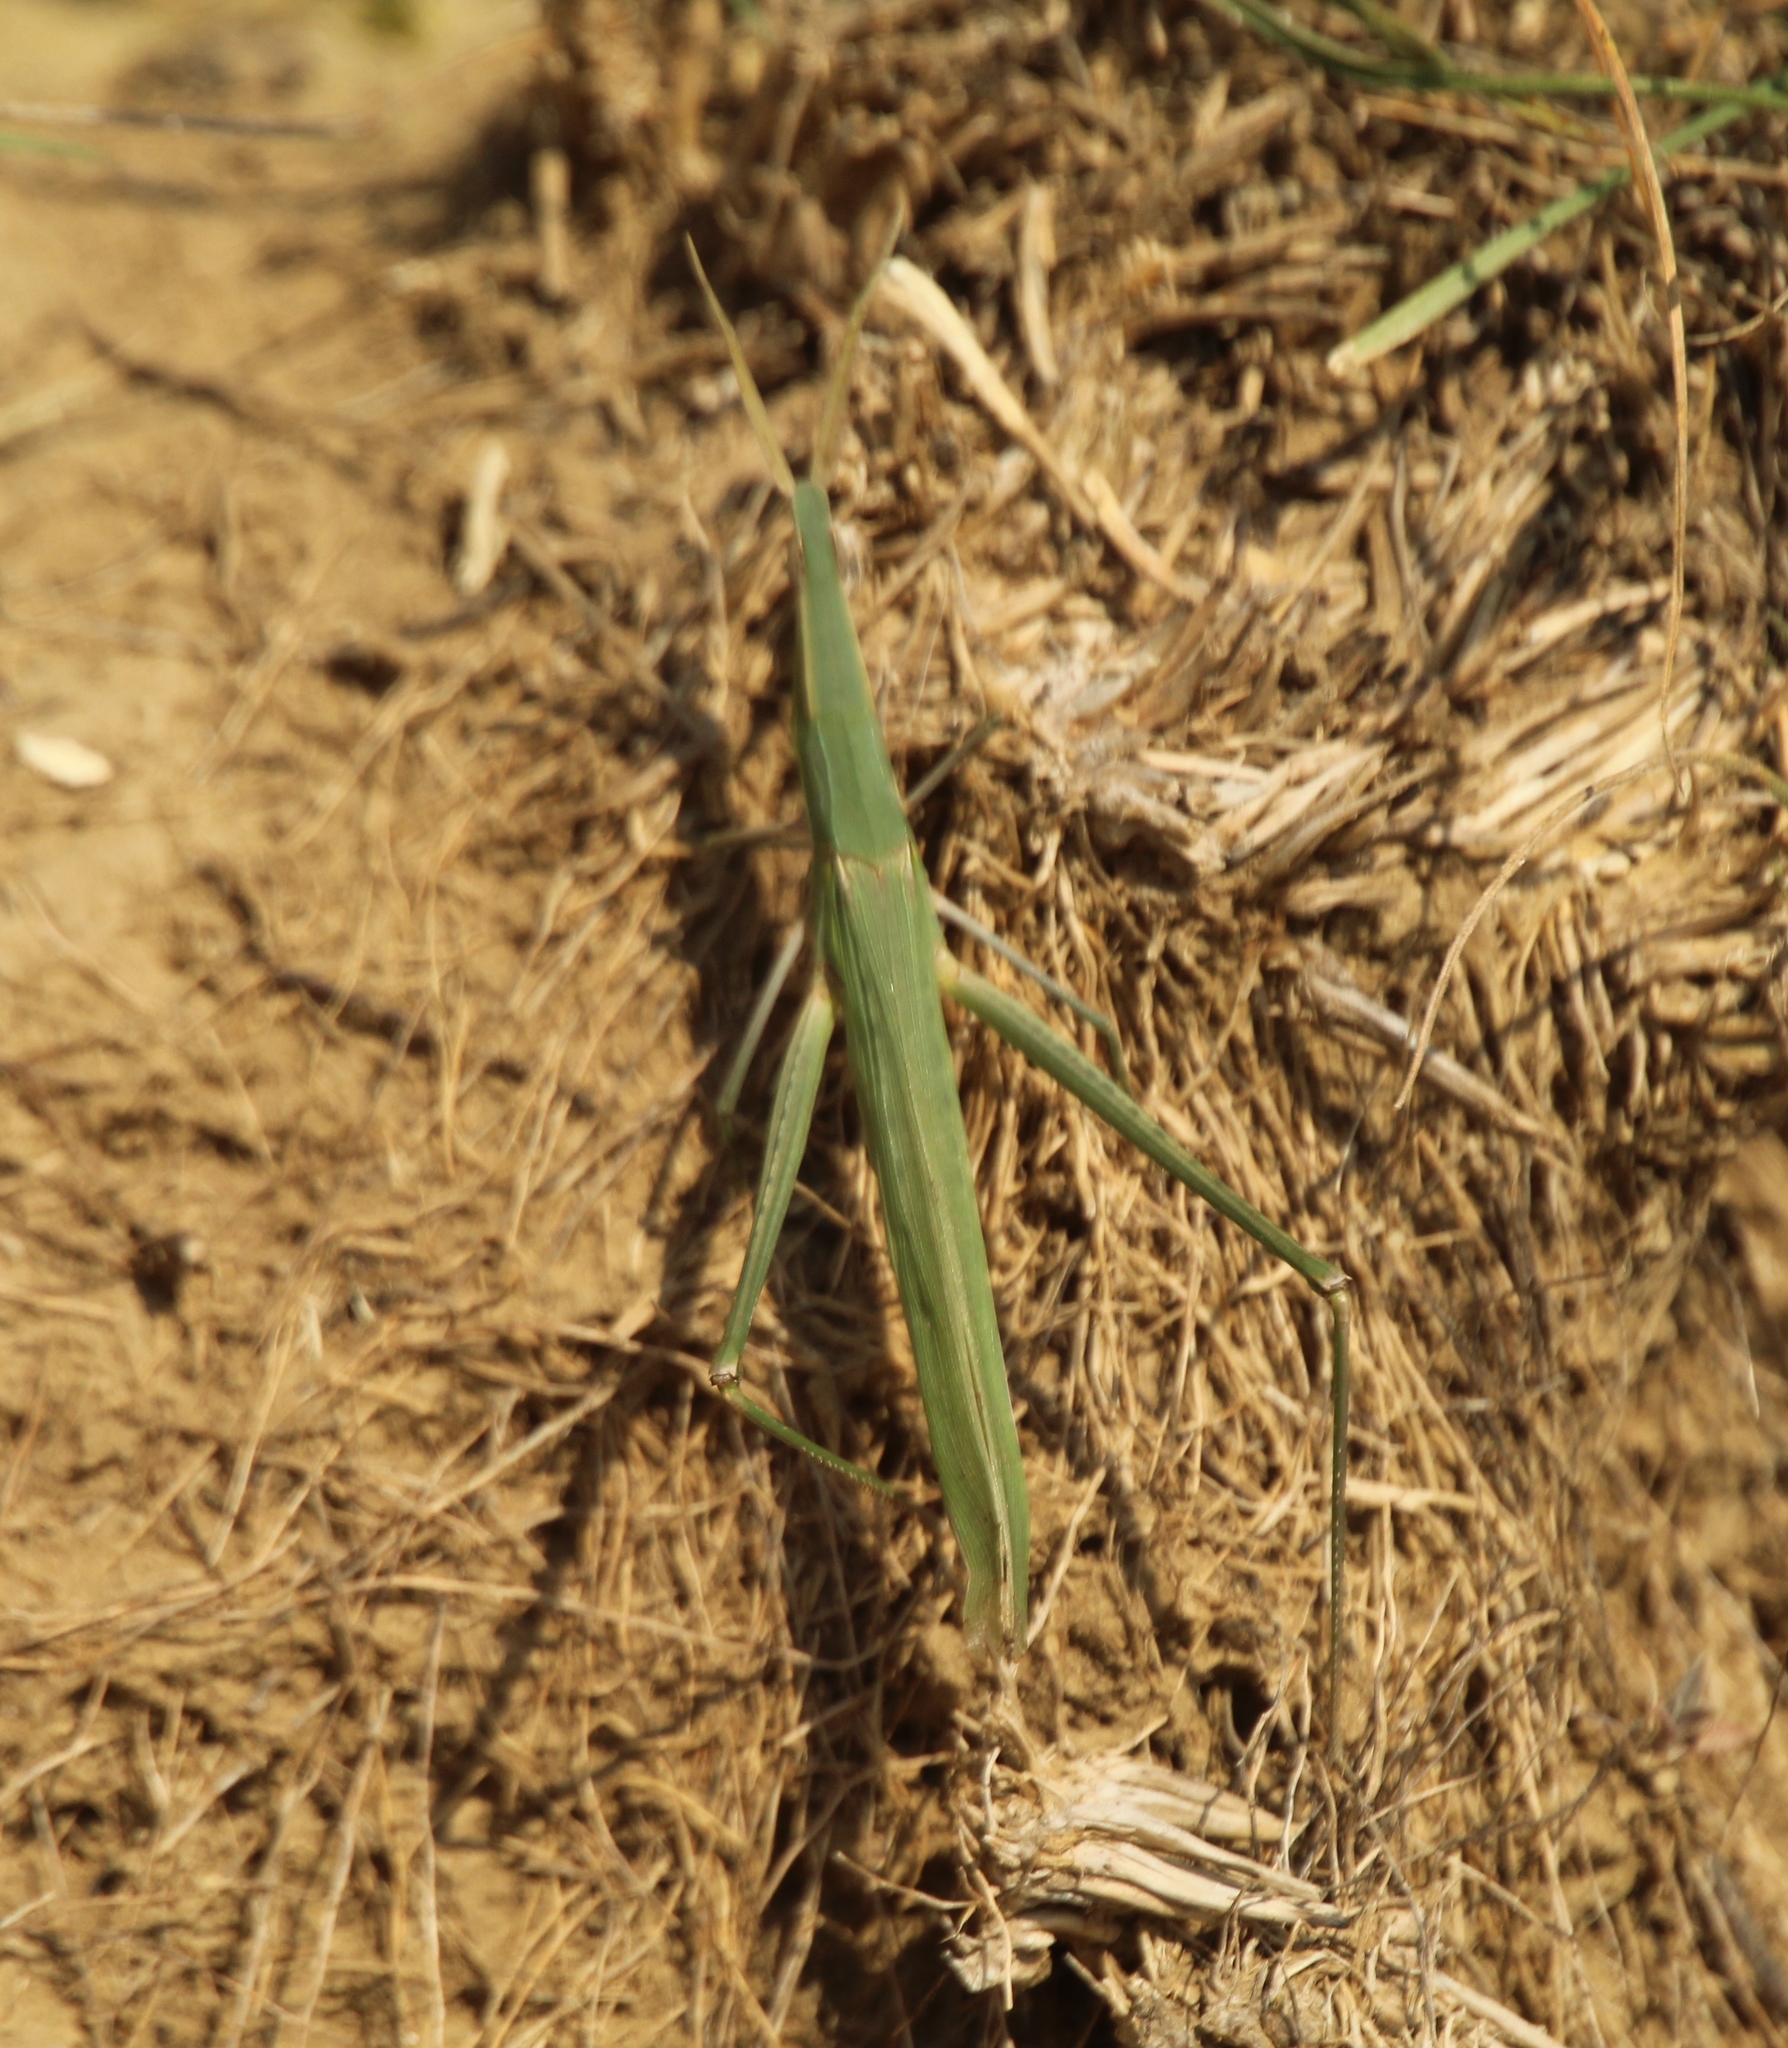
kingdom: Animalia
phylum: Arthropoda
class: Insecta
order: Orthoptera
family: Acrididae
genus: Acrida
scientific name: Acrida ungarica
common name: Common cone-headed grasshopper
